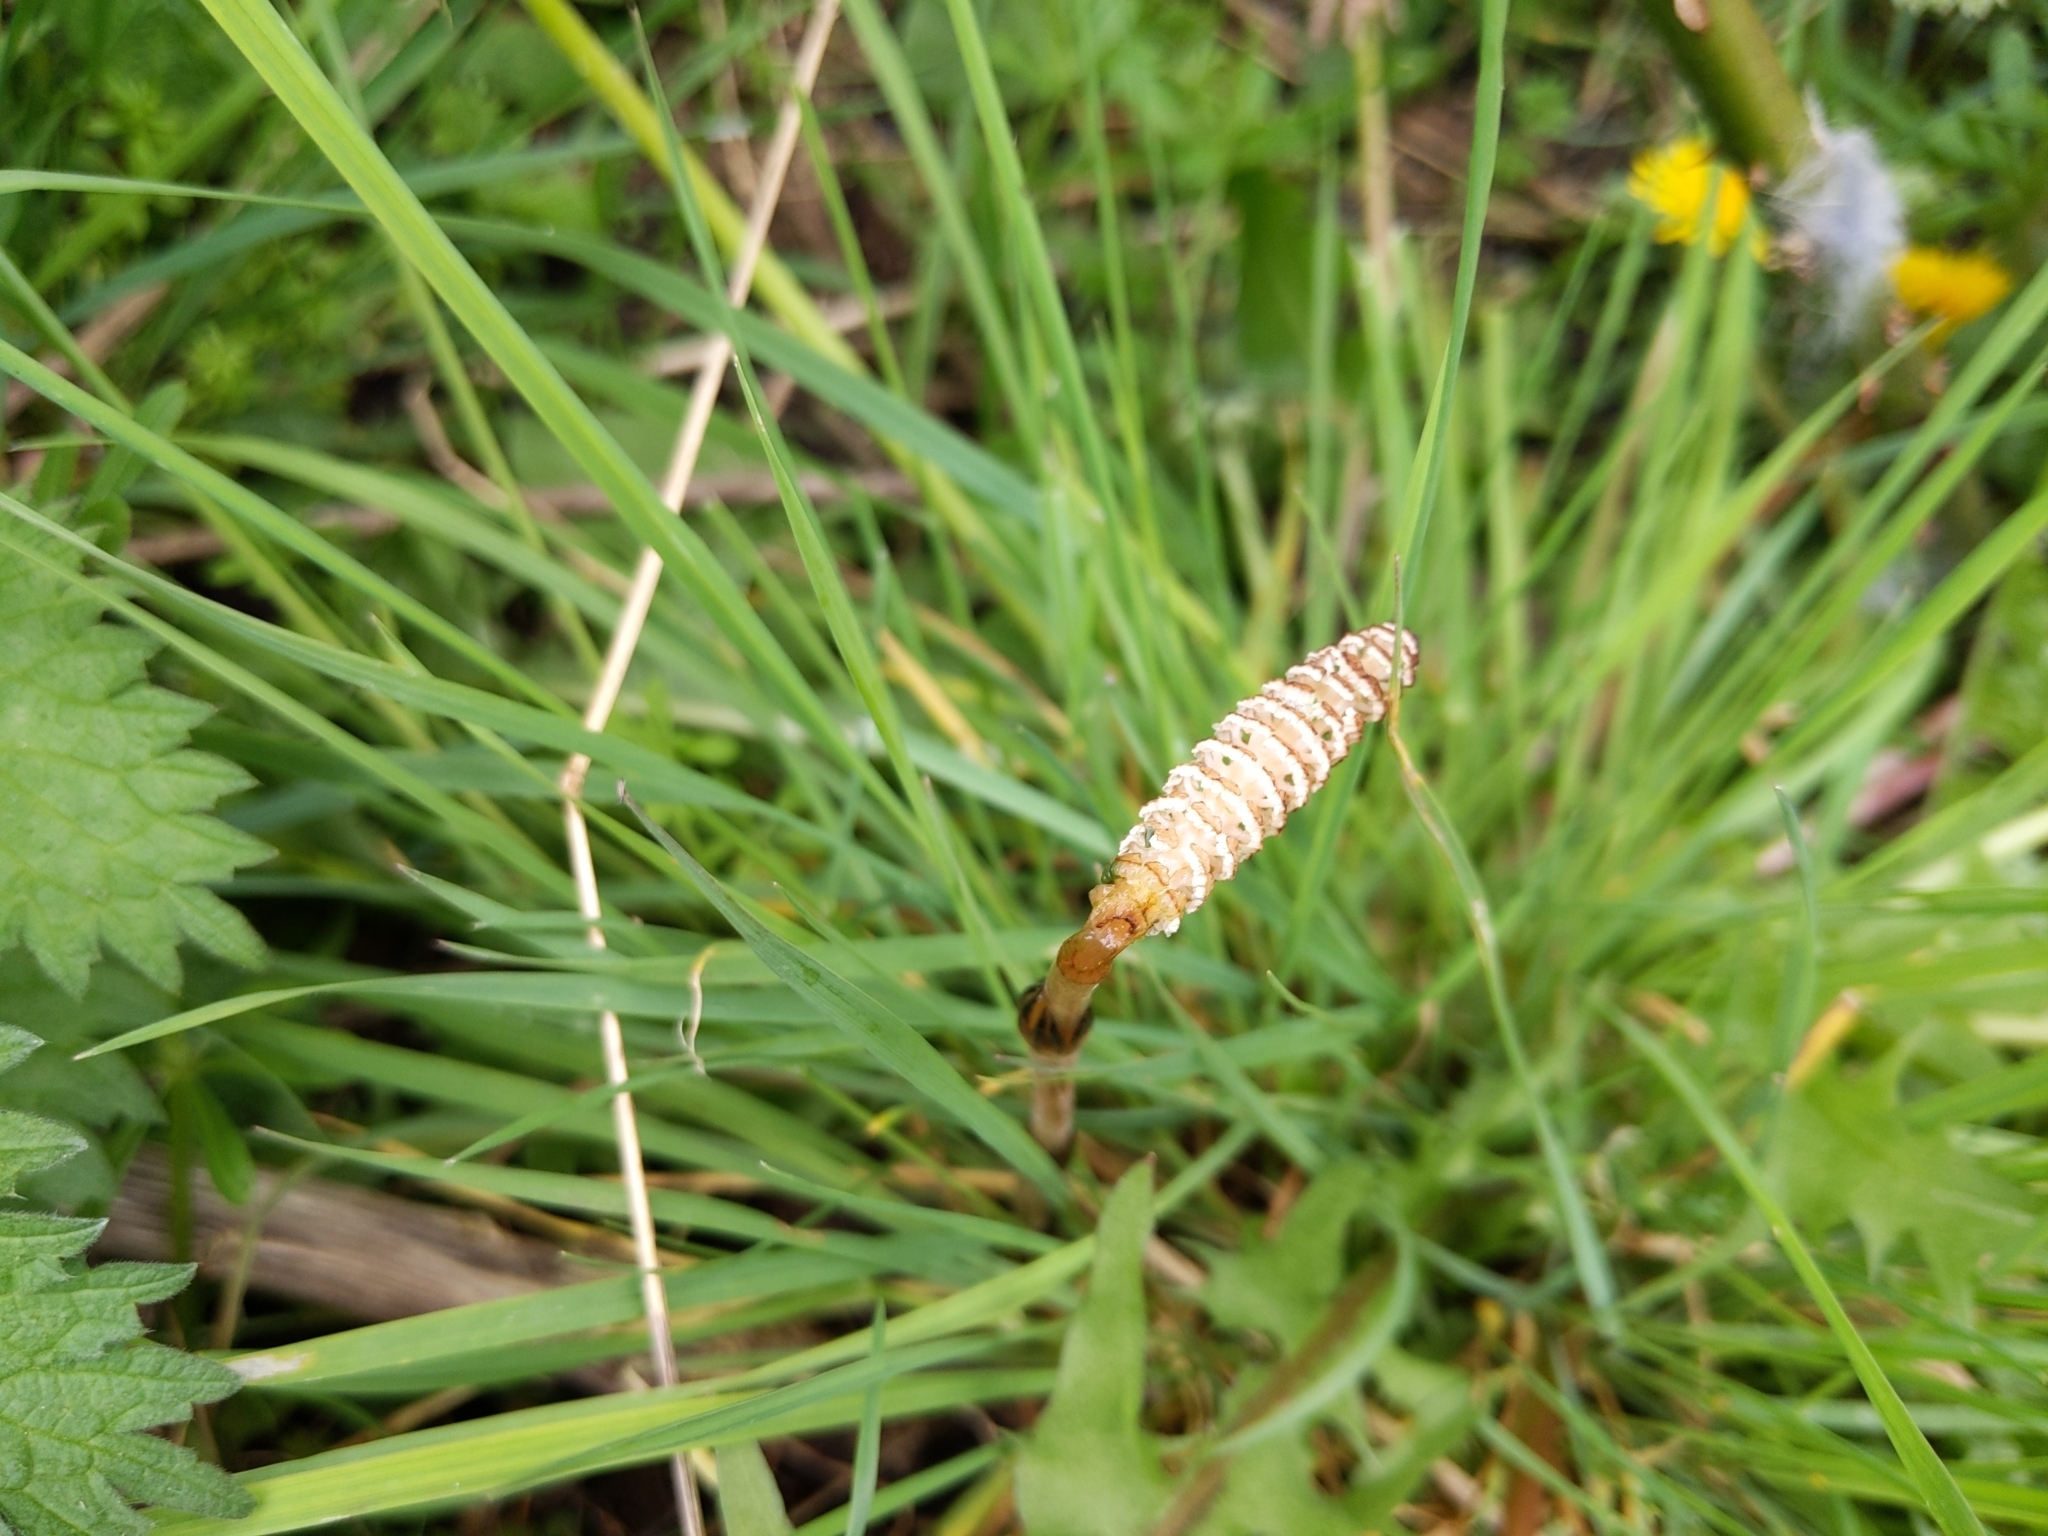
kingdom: Plantae
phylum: Tracheophyta
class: Polypodiopsida
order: Equisetales
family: Equisetaceae
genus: Equisetum
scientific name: Equisetum arvense
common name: Field horsetail
